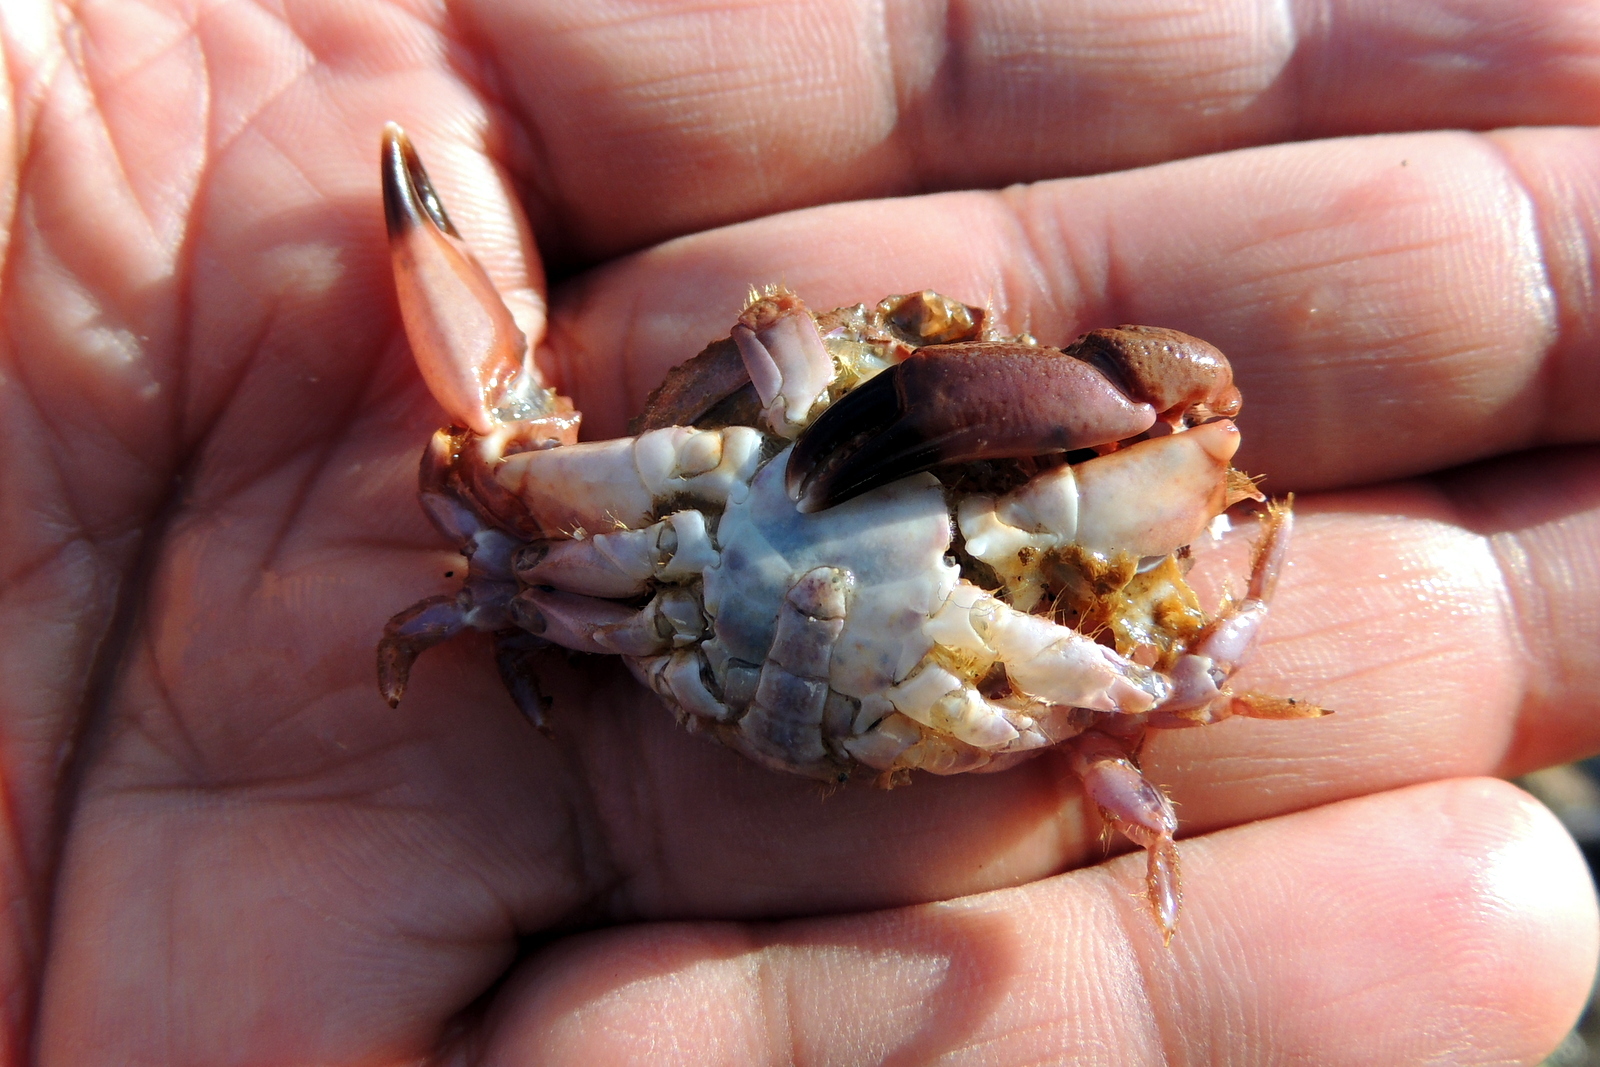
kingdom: Animalia
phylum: Arthropoda
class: Malacostraca
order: Decapoda
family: Xanthidae
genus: Cycloxanthops
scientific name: Cycloxanthops novemdentatus
